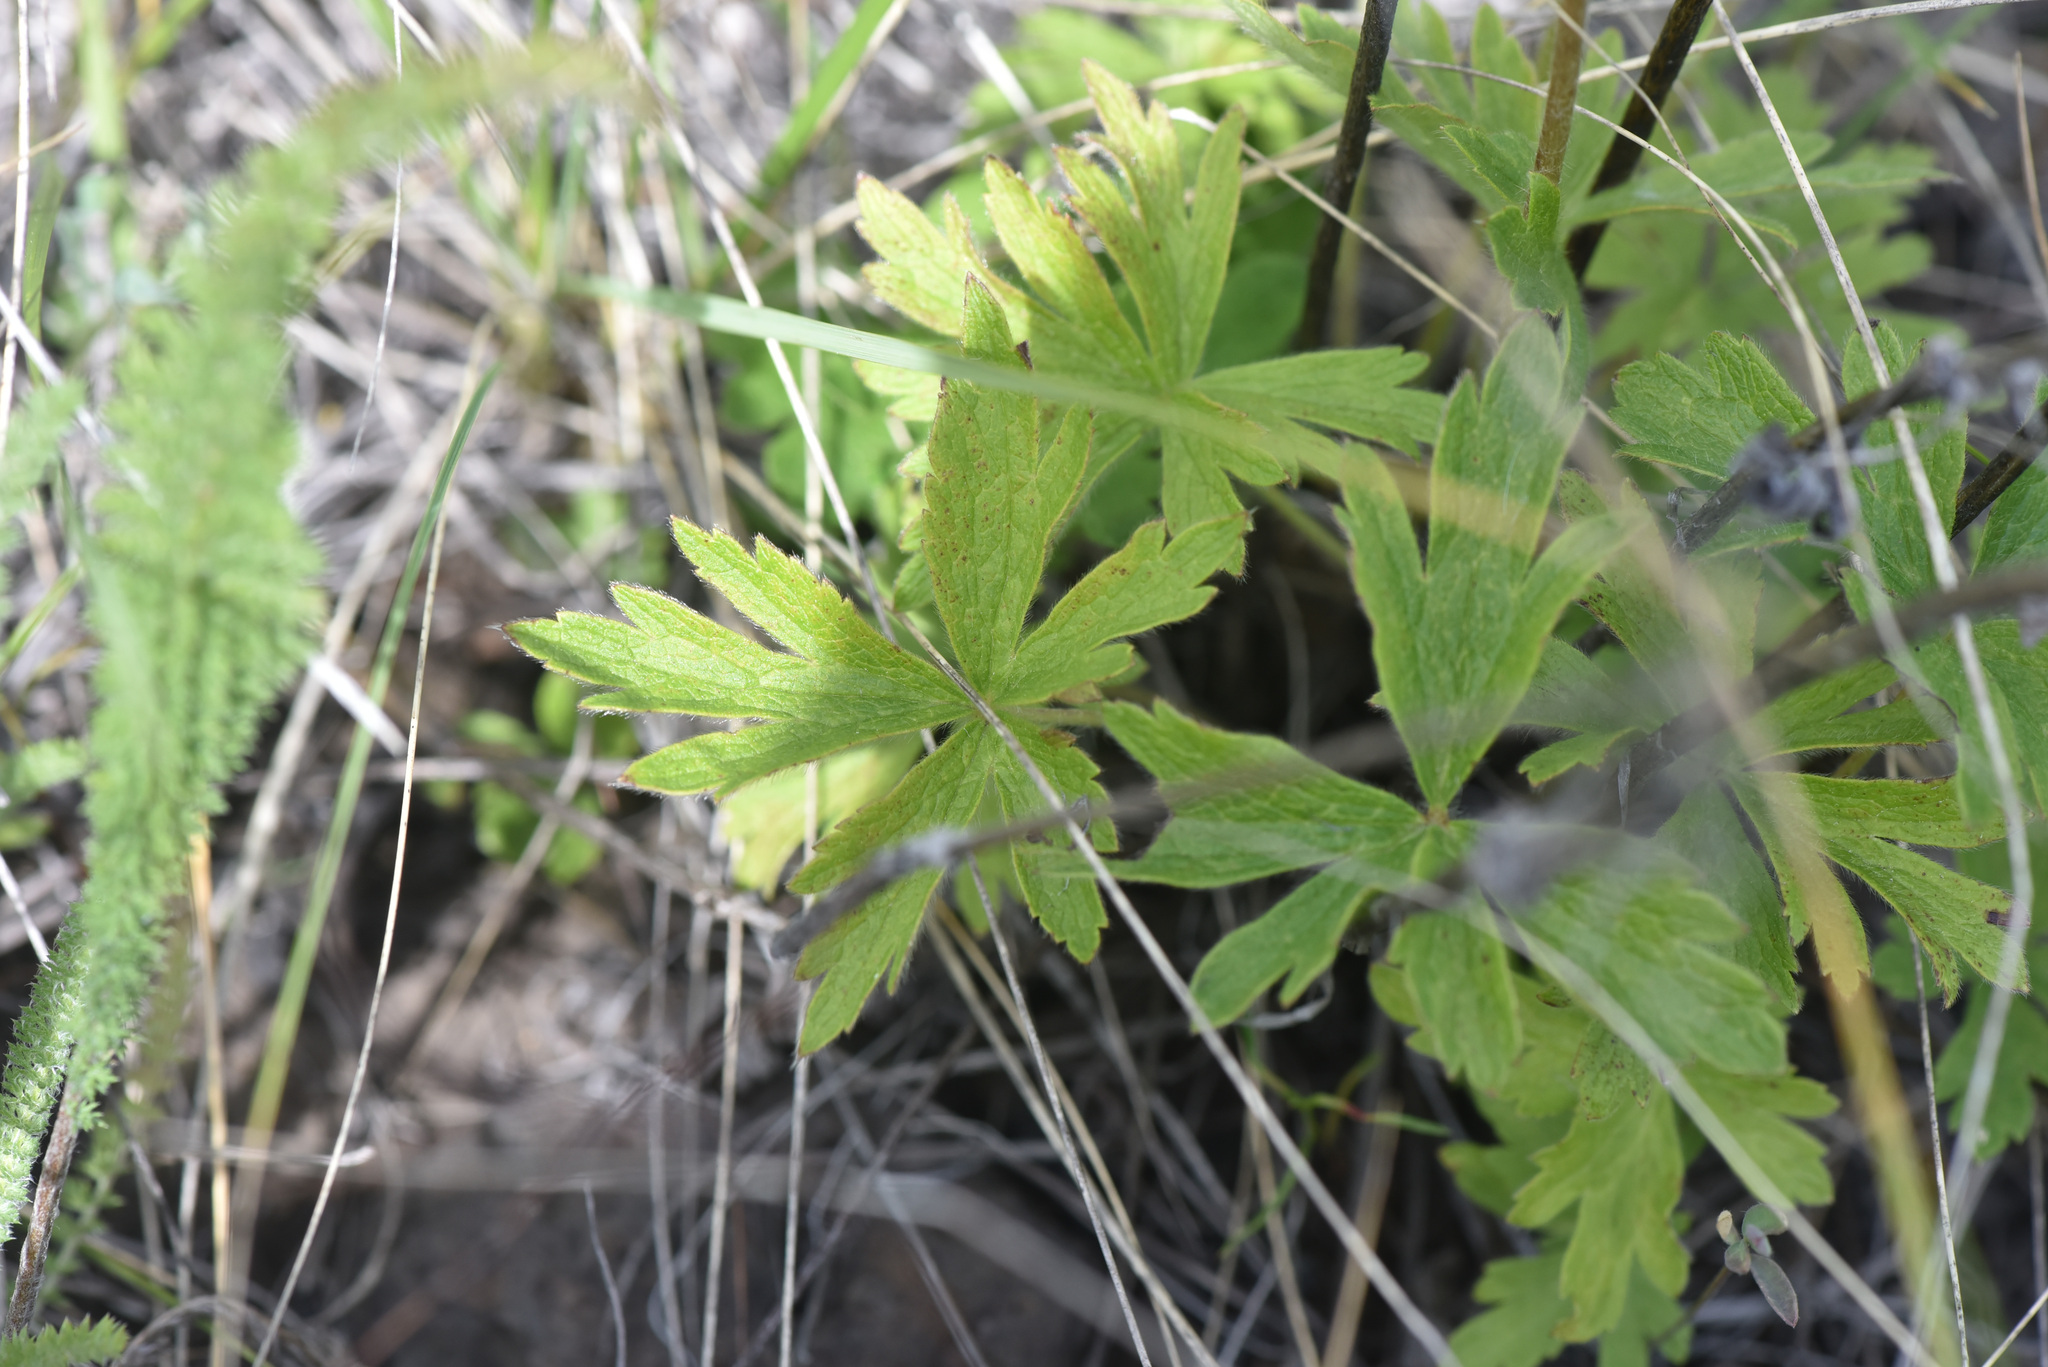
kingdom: Plantae
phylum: Tracheophyta
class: Magnoliopsida
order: Ranunculales
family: Ranunculaceae
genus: Anemone
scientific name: Anemone cylindrica
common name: Candle anemone
